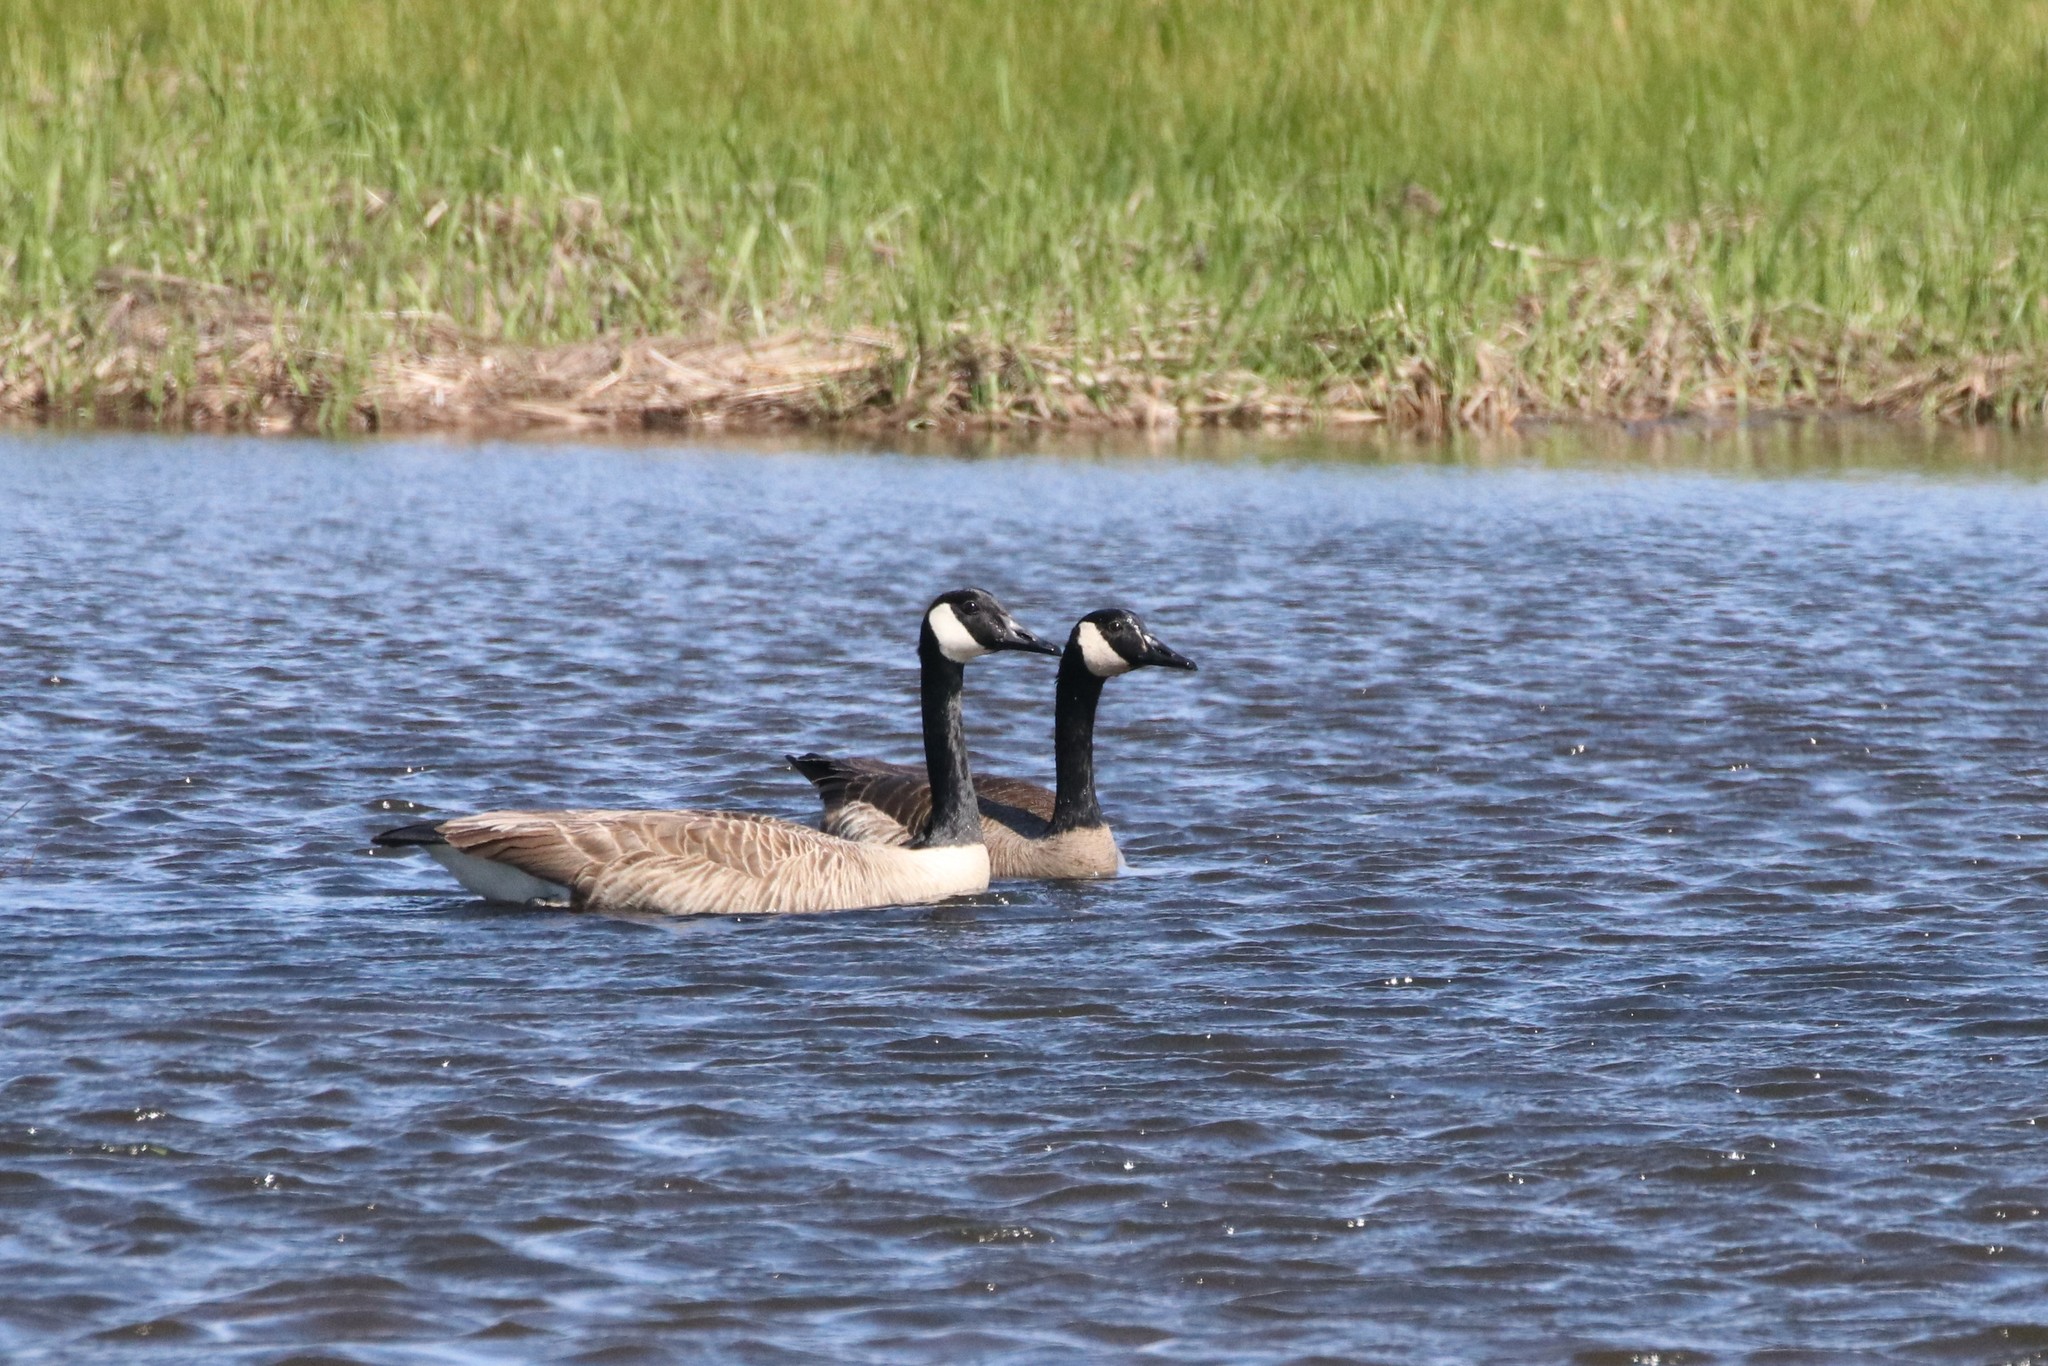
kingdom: Animalia
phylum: Chordata
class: Aves
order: Anseriformes
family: Anatidae
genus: Branta
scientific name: Branta canadensis
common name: Canada goose
